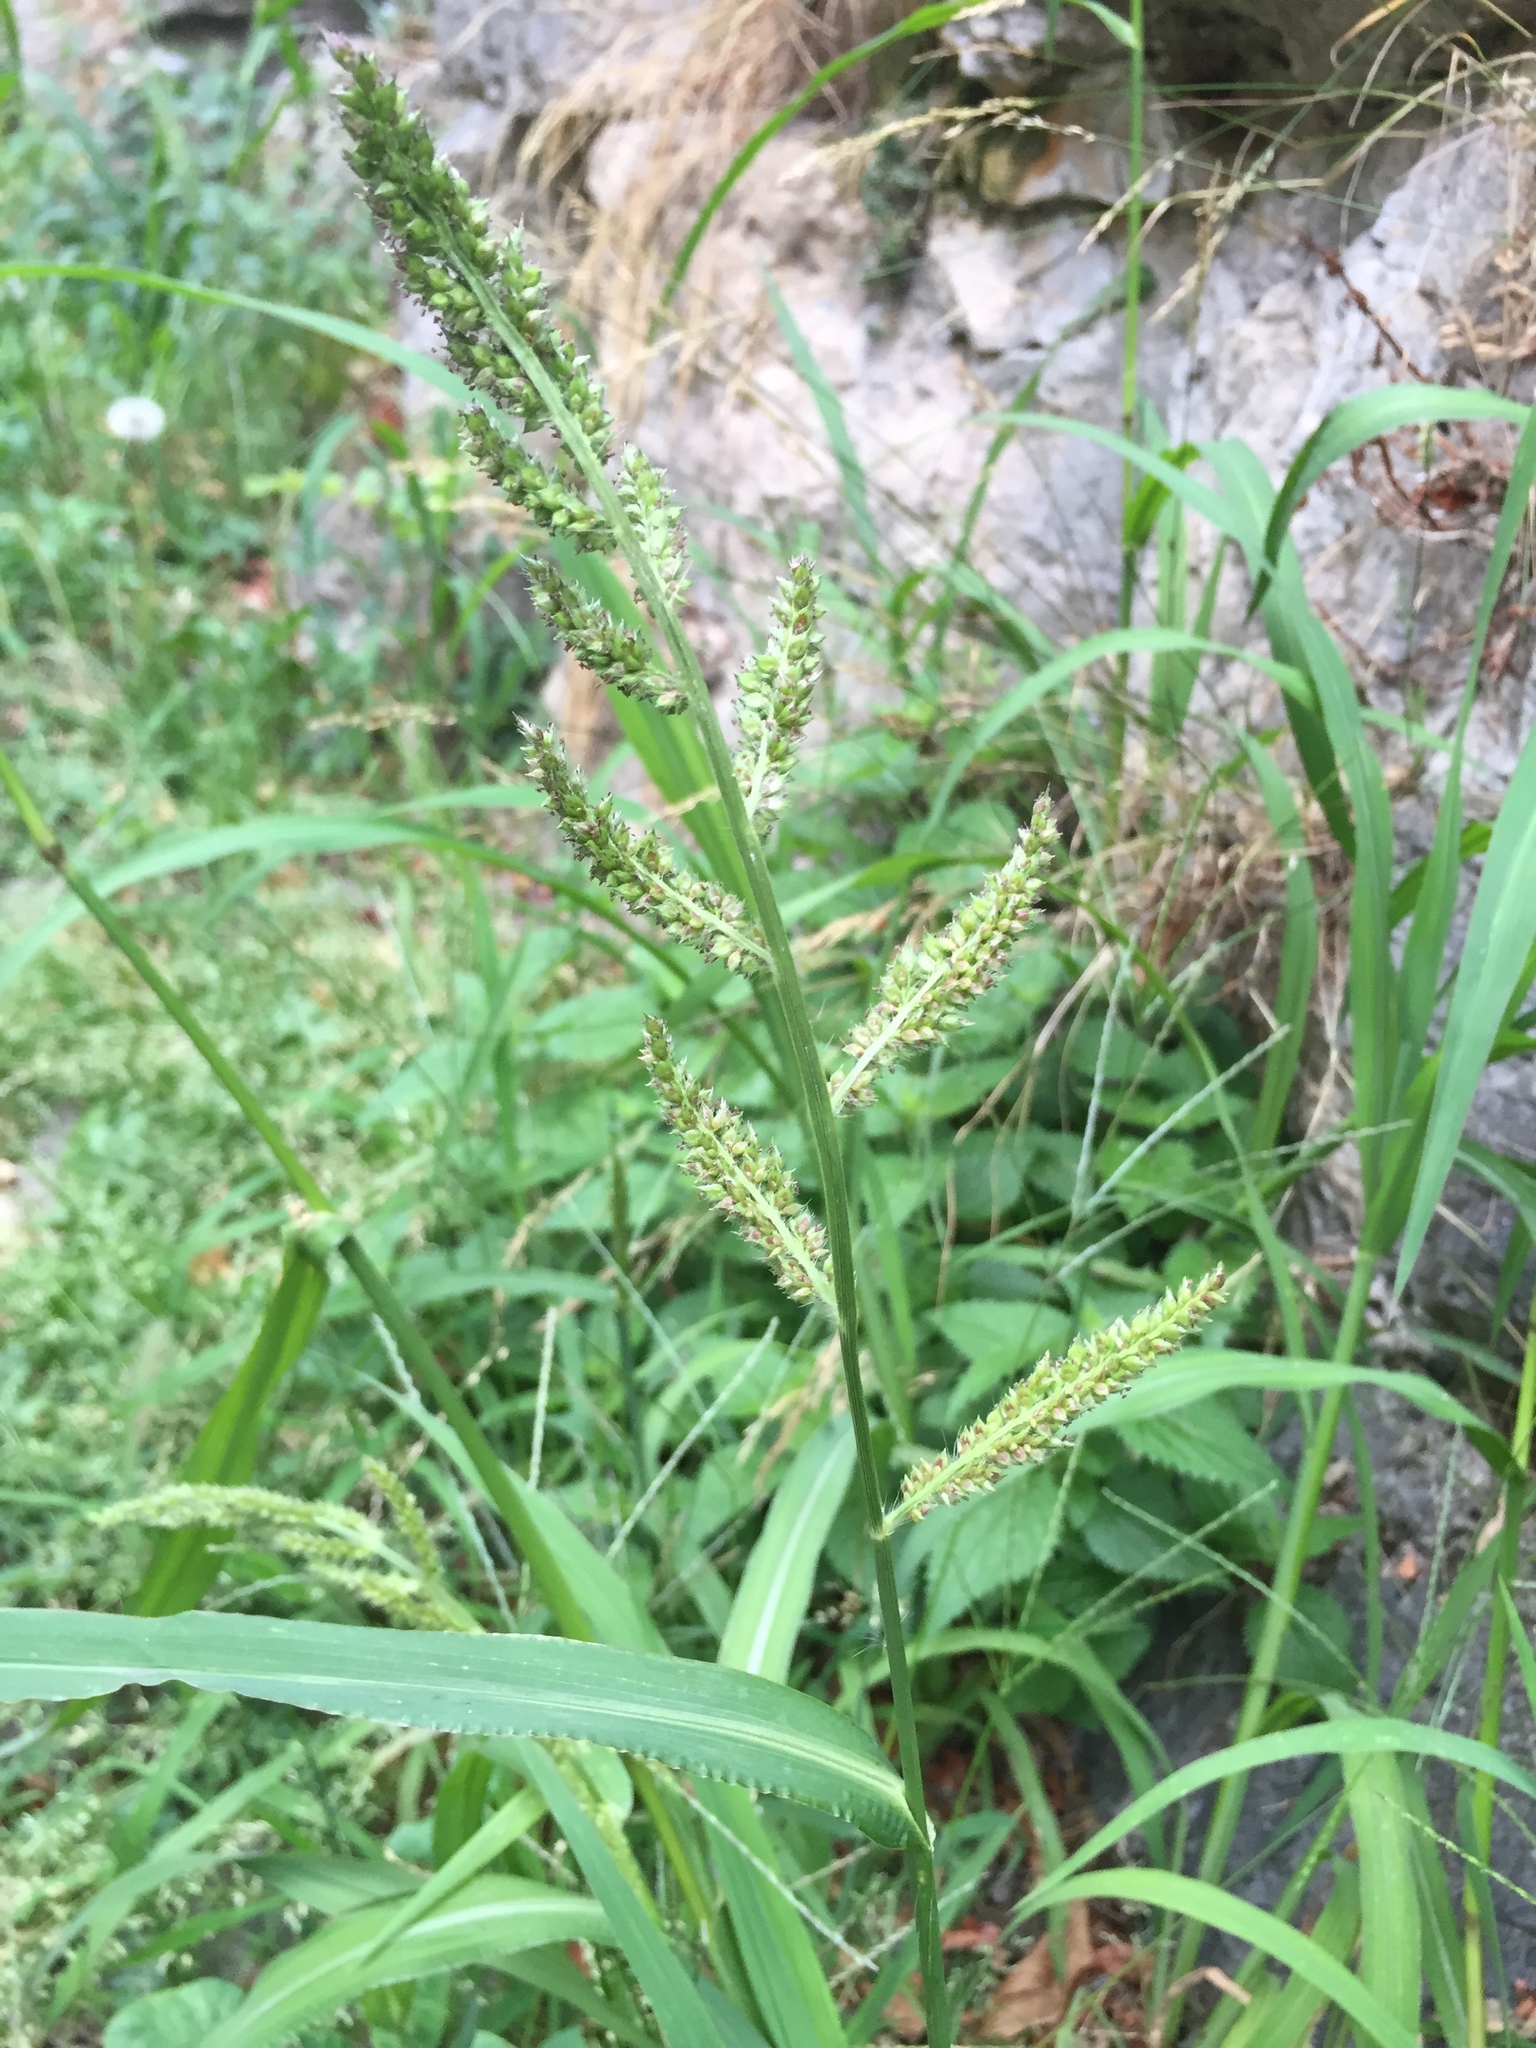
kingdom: Plantae
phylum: Tracheophyta
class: Liliopsida
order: Poales
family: Poaceae
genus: Echinochloa
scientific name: Echinochloa crus-galli
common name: Cockspur
